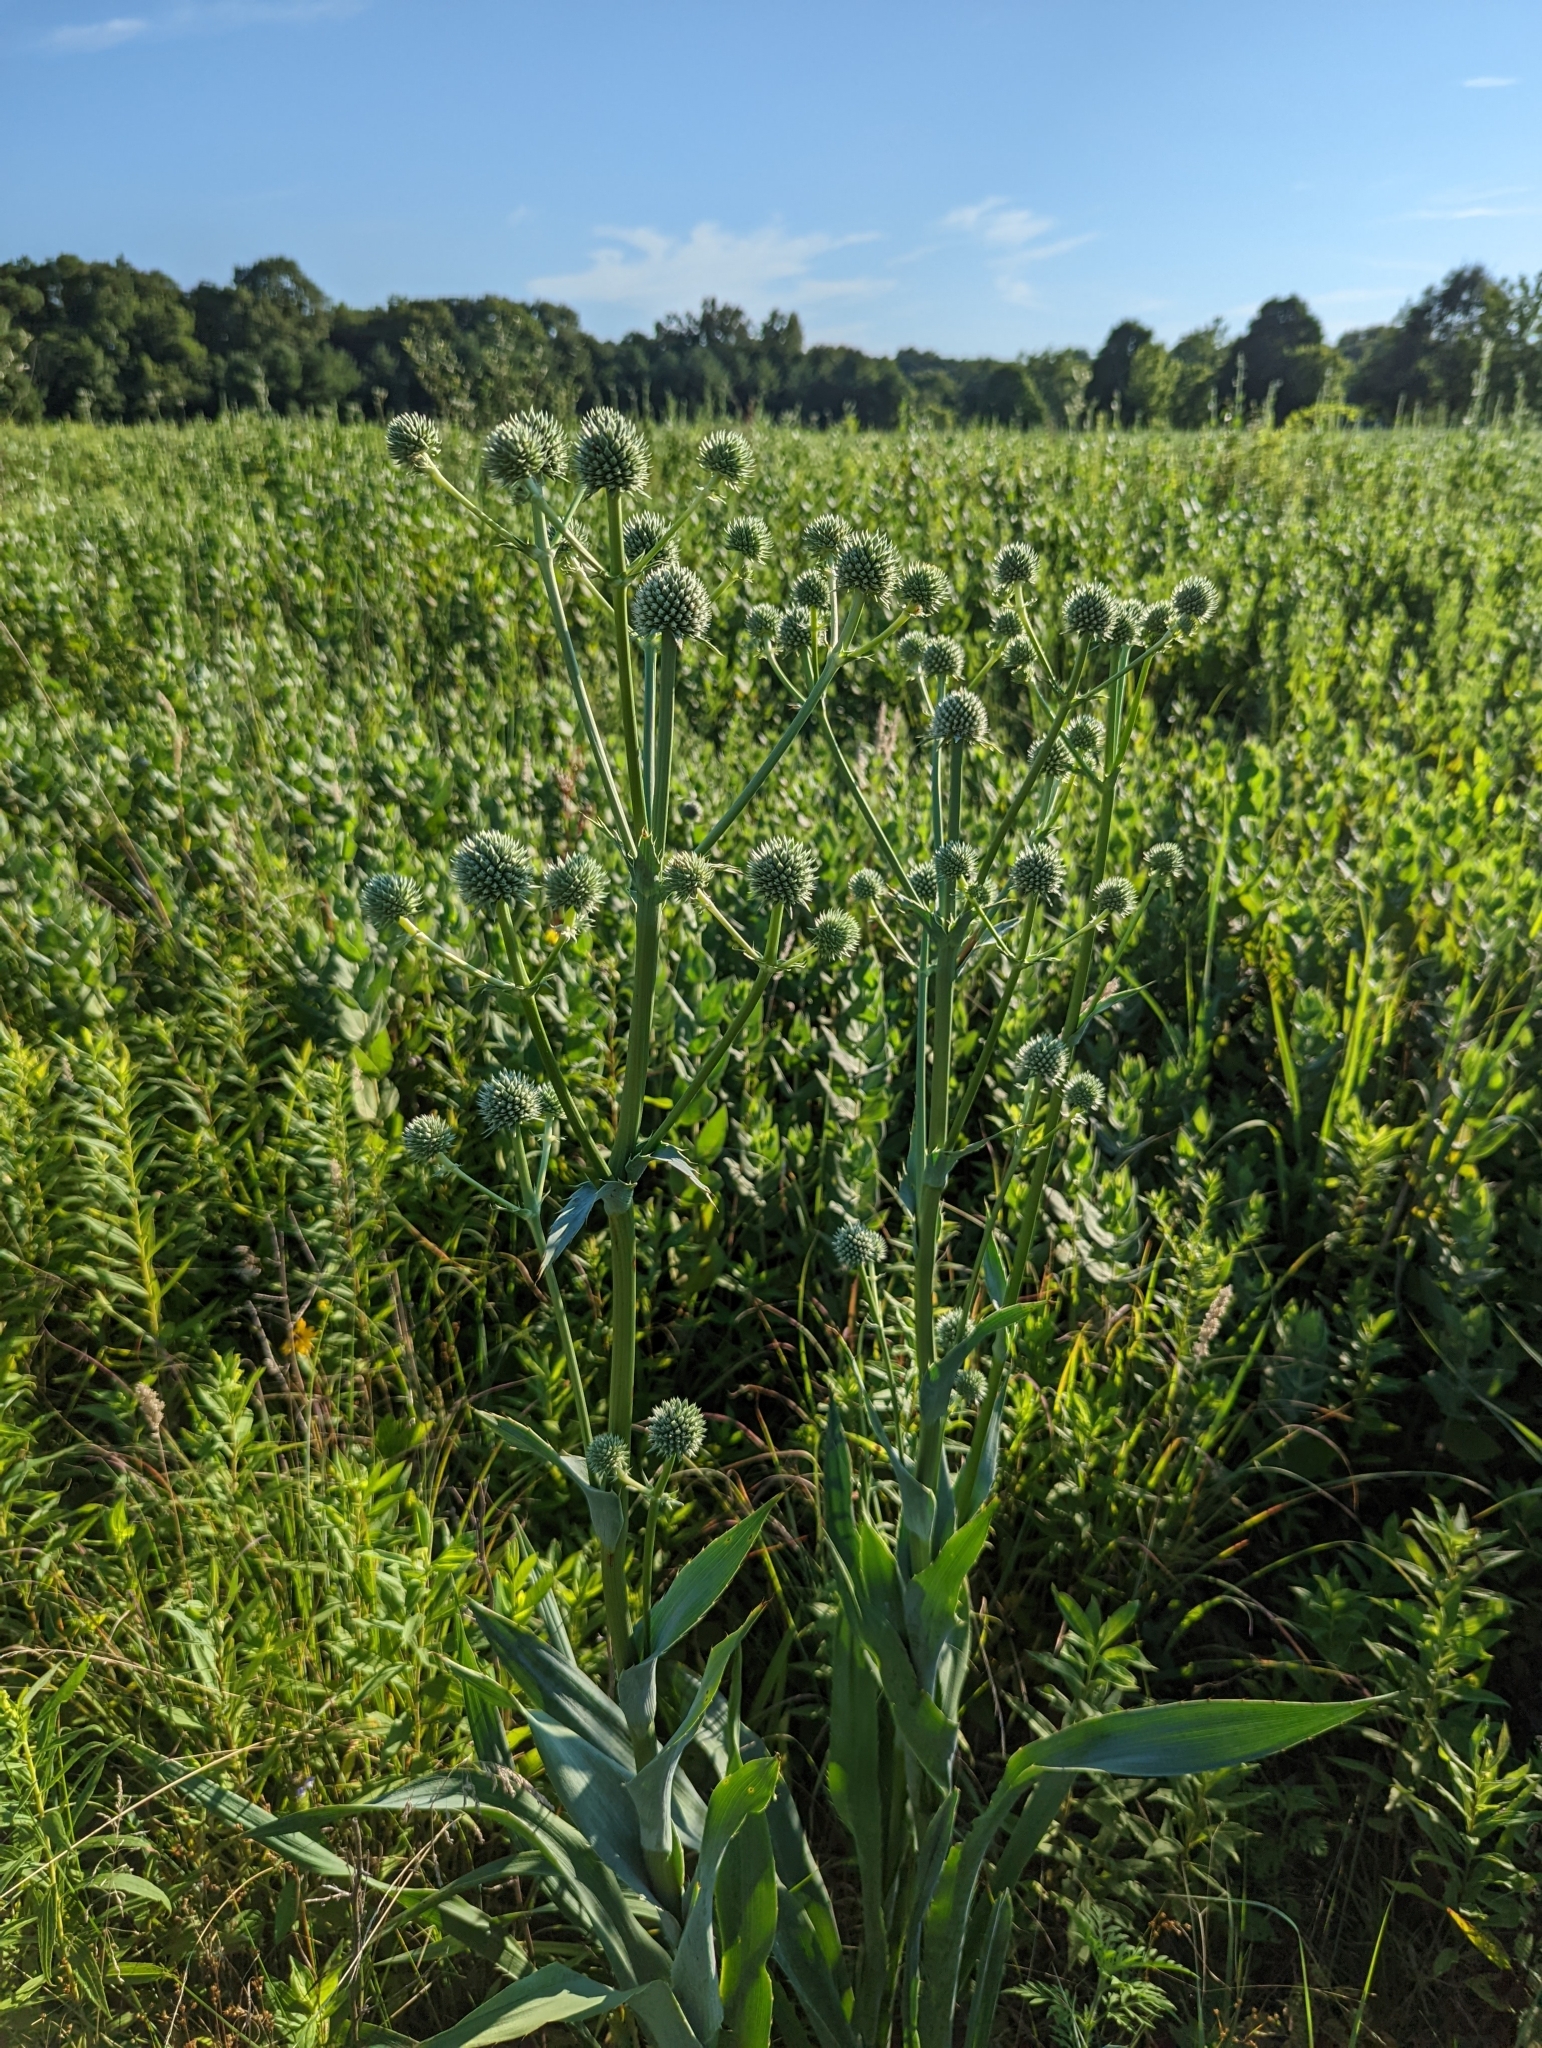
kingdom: Plantae
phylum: Tracheophyta
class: Magnoliopsida
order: Apiales
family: Apiaceae
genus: Eryngium
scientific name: Eryngium yuccifolium
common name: Button eryngo
